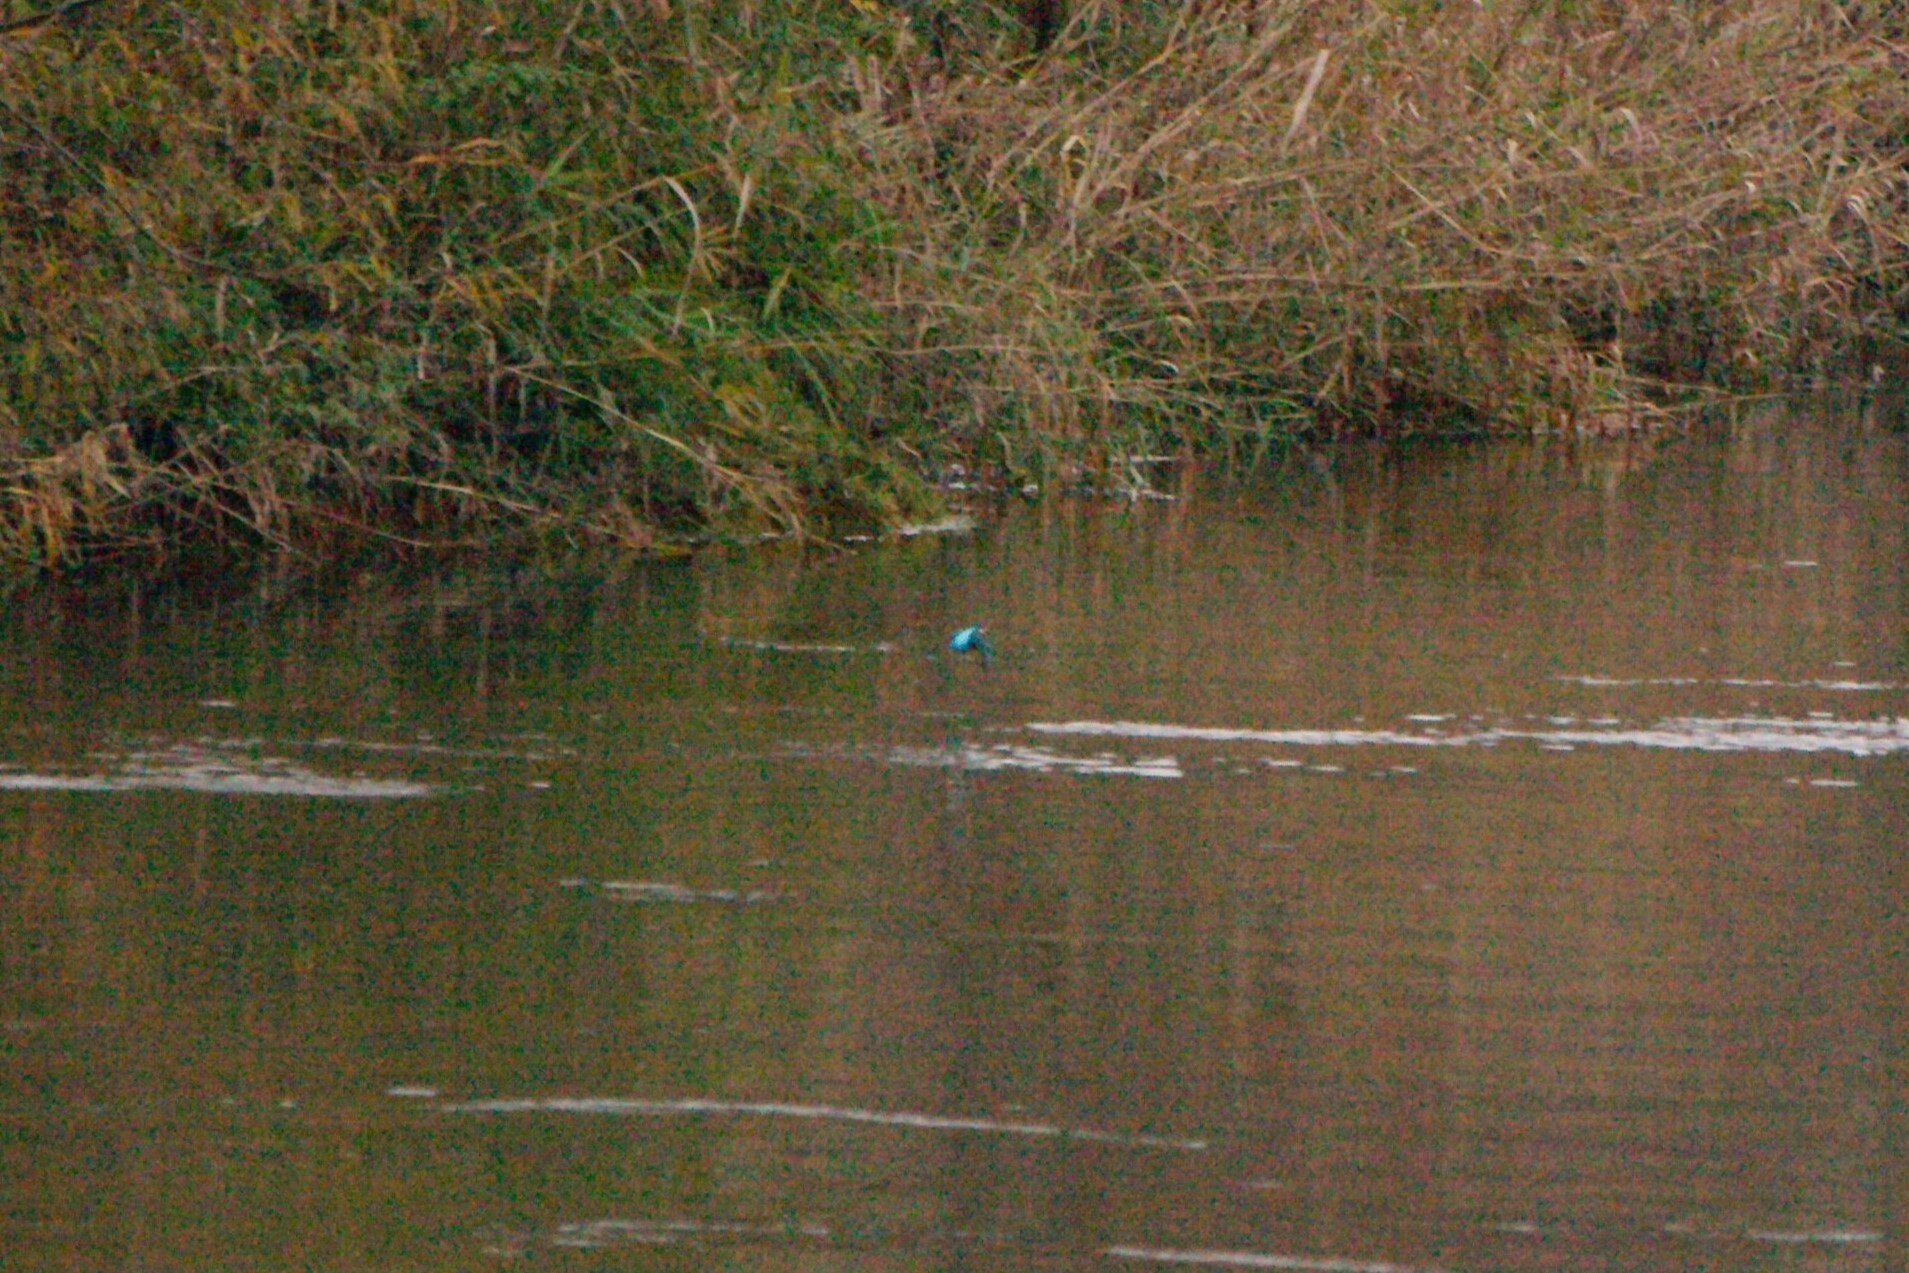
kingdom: Animalia
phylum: Chordata
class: Aves
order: Coraciiformes
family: Alcedinidae
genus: Alcedo
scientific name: Alcedo atthis
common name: Common kingfisher
